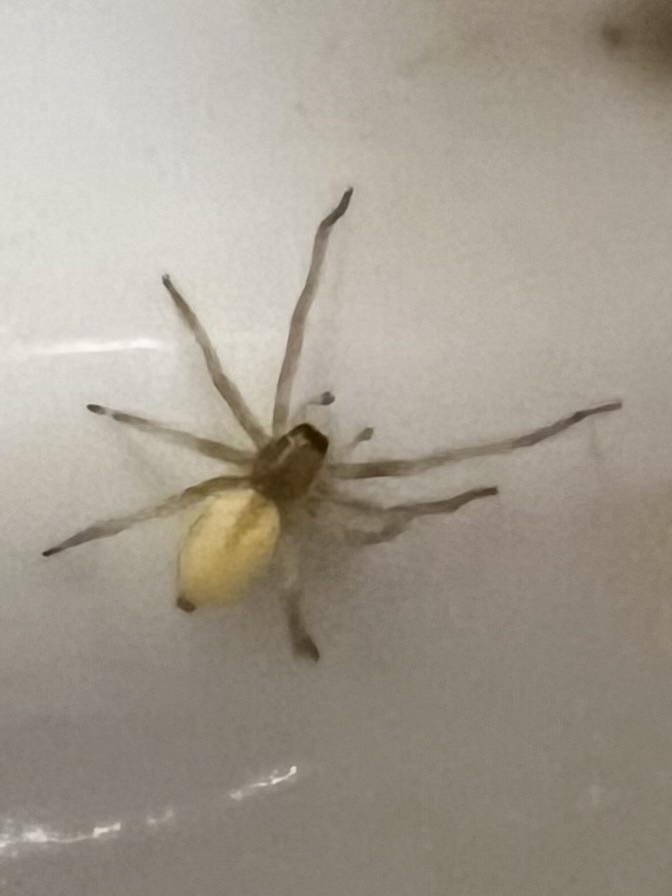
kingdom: Animalia
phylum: Arthropoda
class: Arachnida
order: Araneae
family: Cheiracanthiidae
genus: Cheiracanthium
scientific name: Cheiracanthium mildei
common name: Northern yellow sac spider
